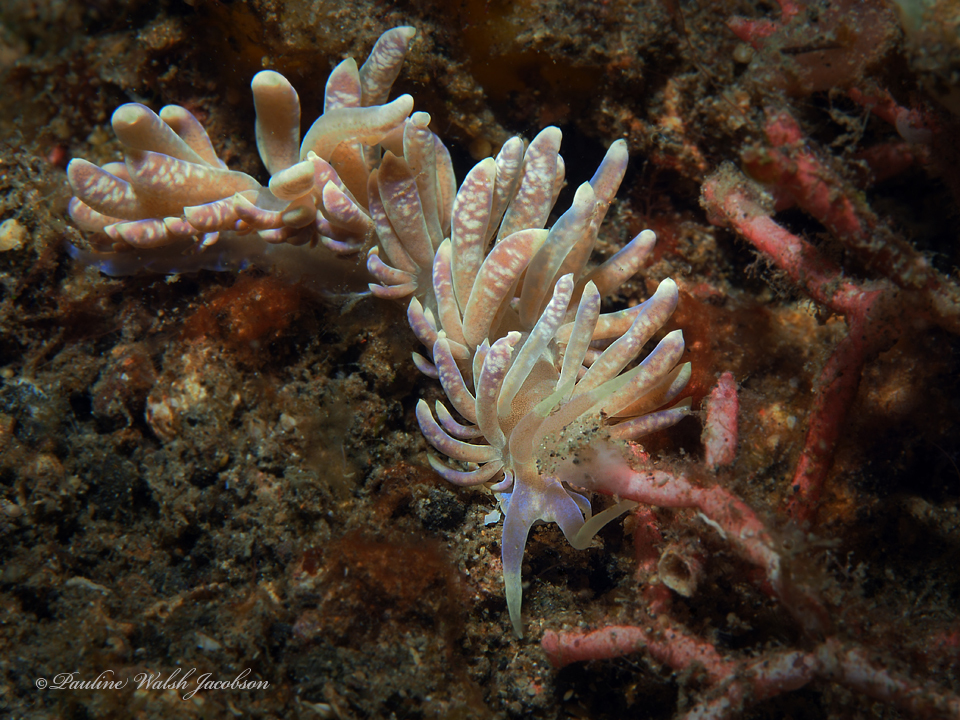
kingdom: Animalia
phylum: Mollusca
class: Gastropoda
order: Nudibranchia
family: Myrrhinidae
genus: Phyllodesmium
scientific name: Phyllodesmium magnum
